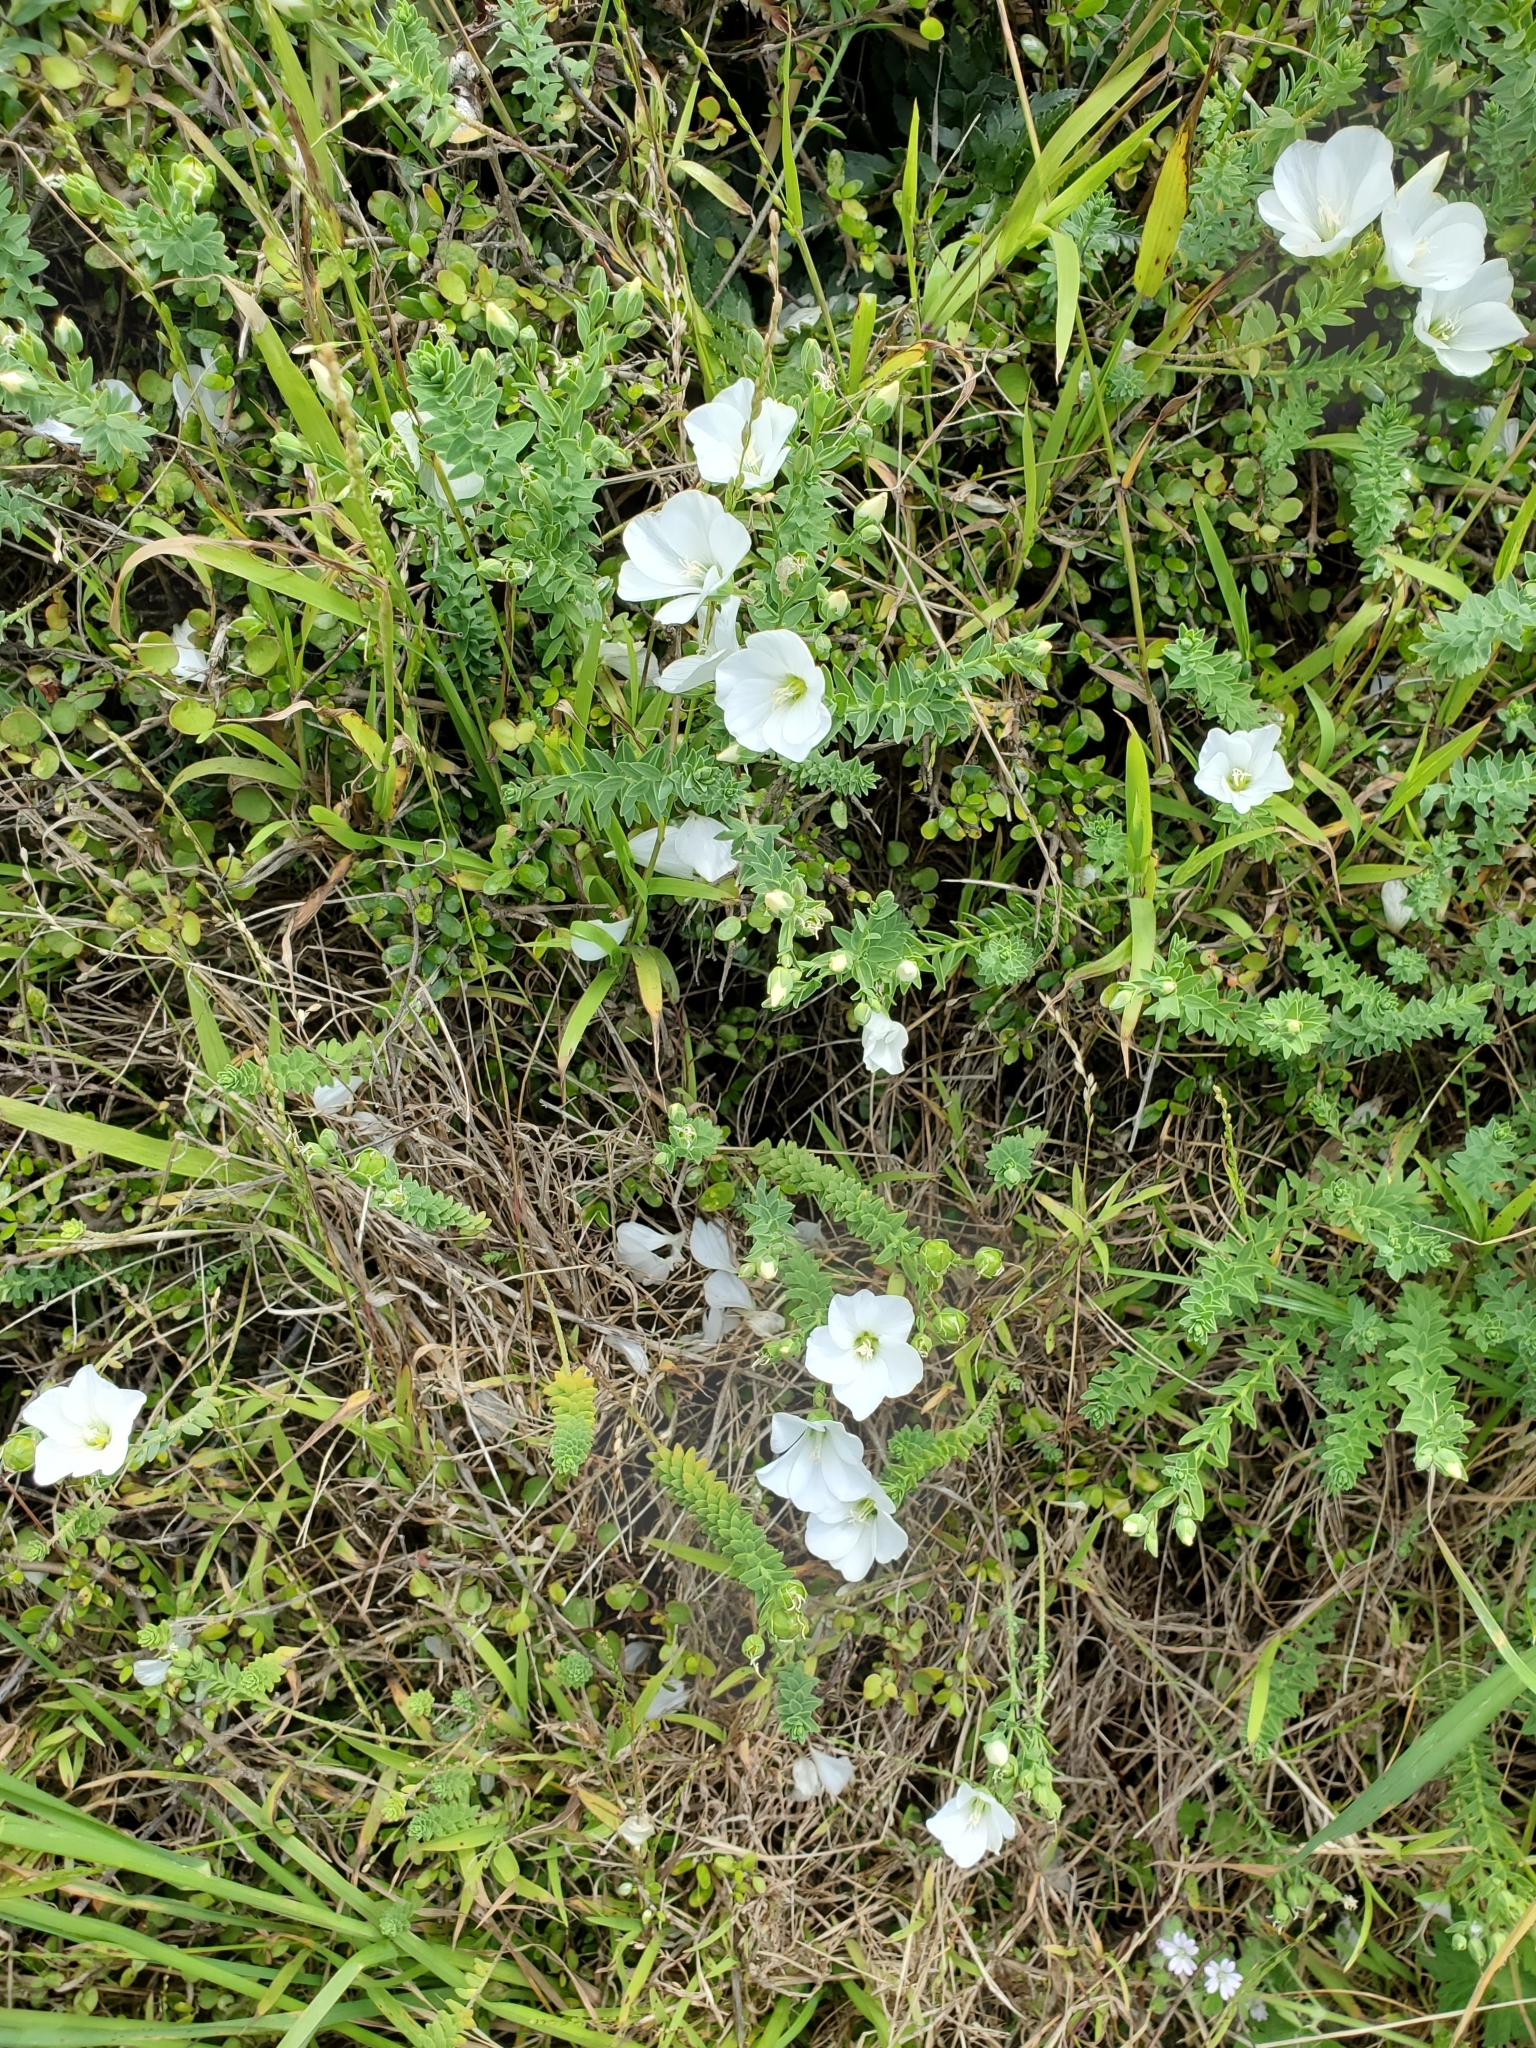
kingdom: Plantae
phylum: Tracheophyta
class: Magnoliopsida
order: Malpighiales
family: Linaceae
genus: Linum
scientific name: Linum monogynum
